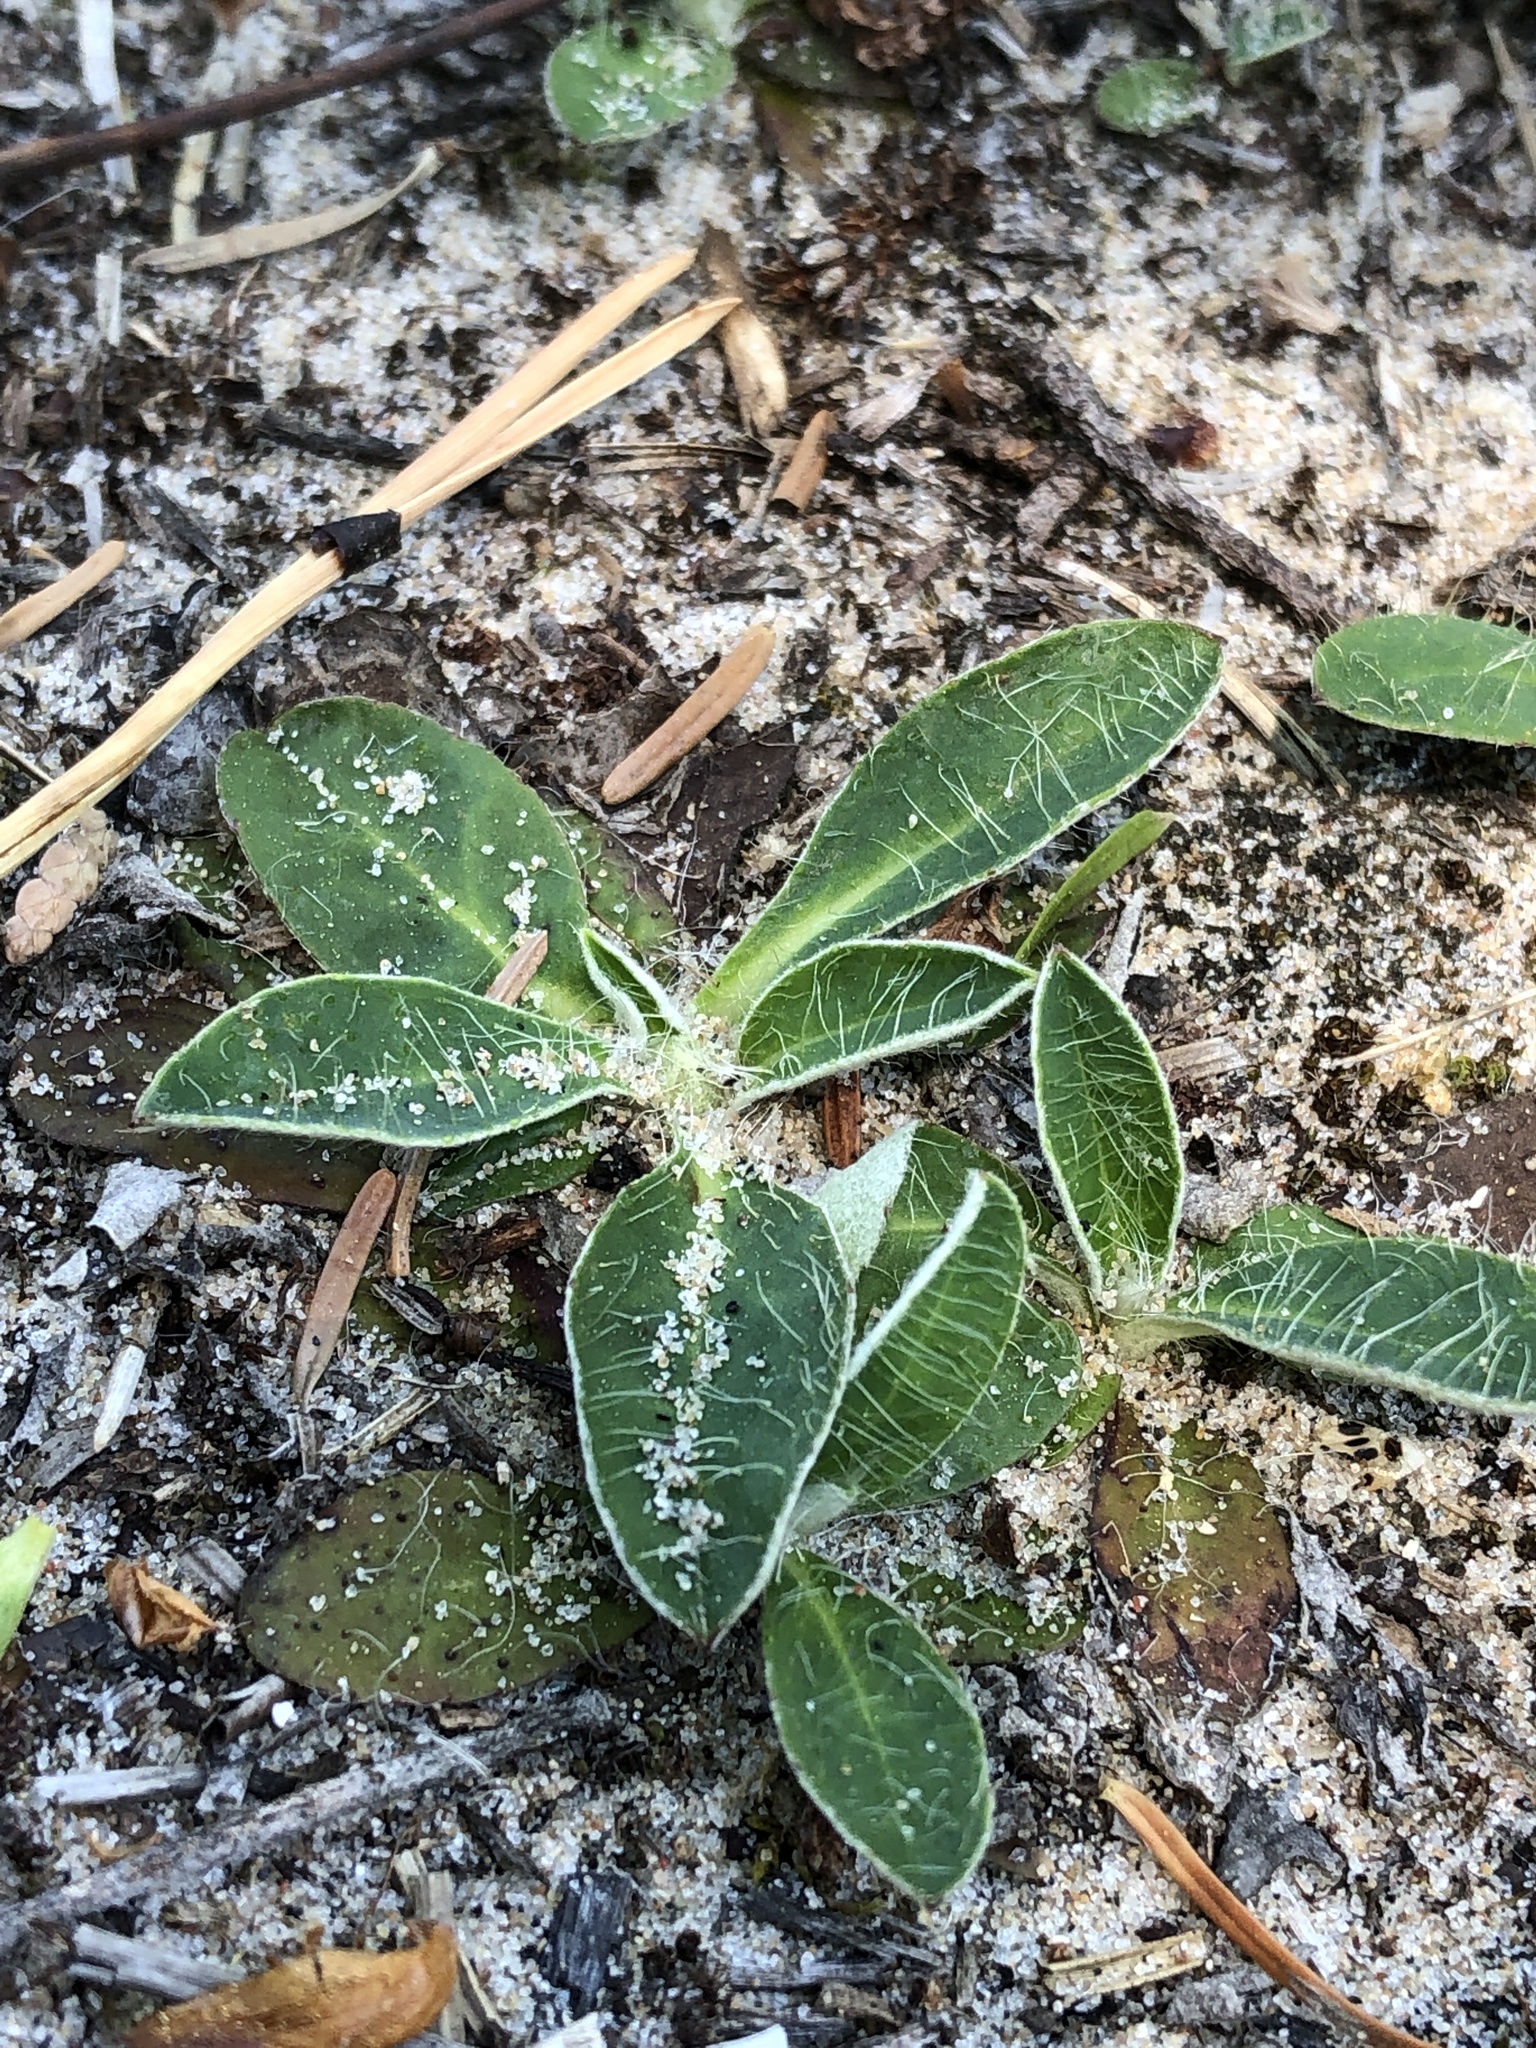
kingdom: Plantae
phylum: Tracheophyta
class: Magnoliopsida
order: Asterales
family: Asteraceae
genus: Pilosella
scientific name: Pilosella officinarum
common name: Mouse-ear hawkweed
